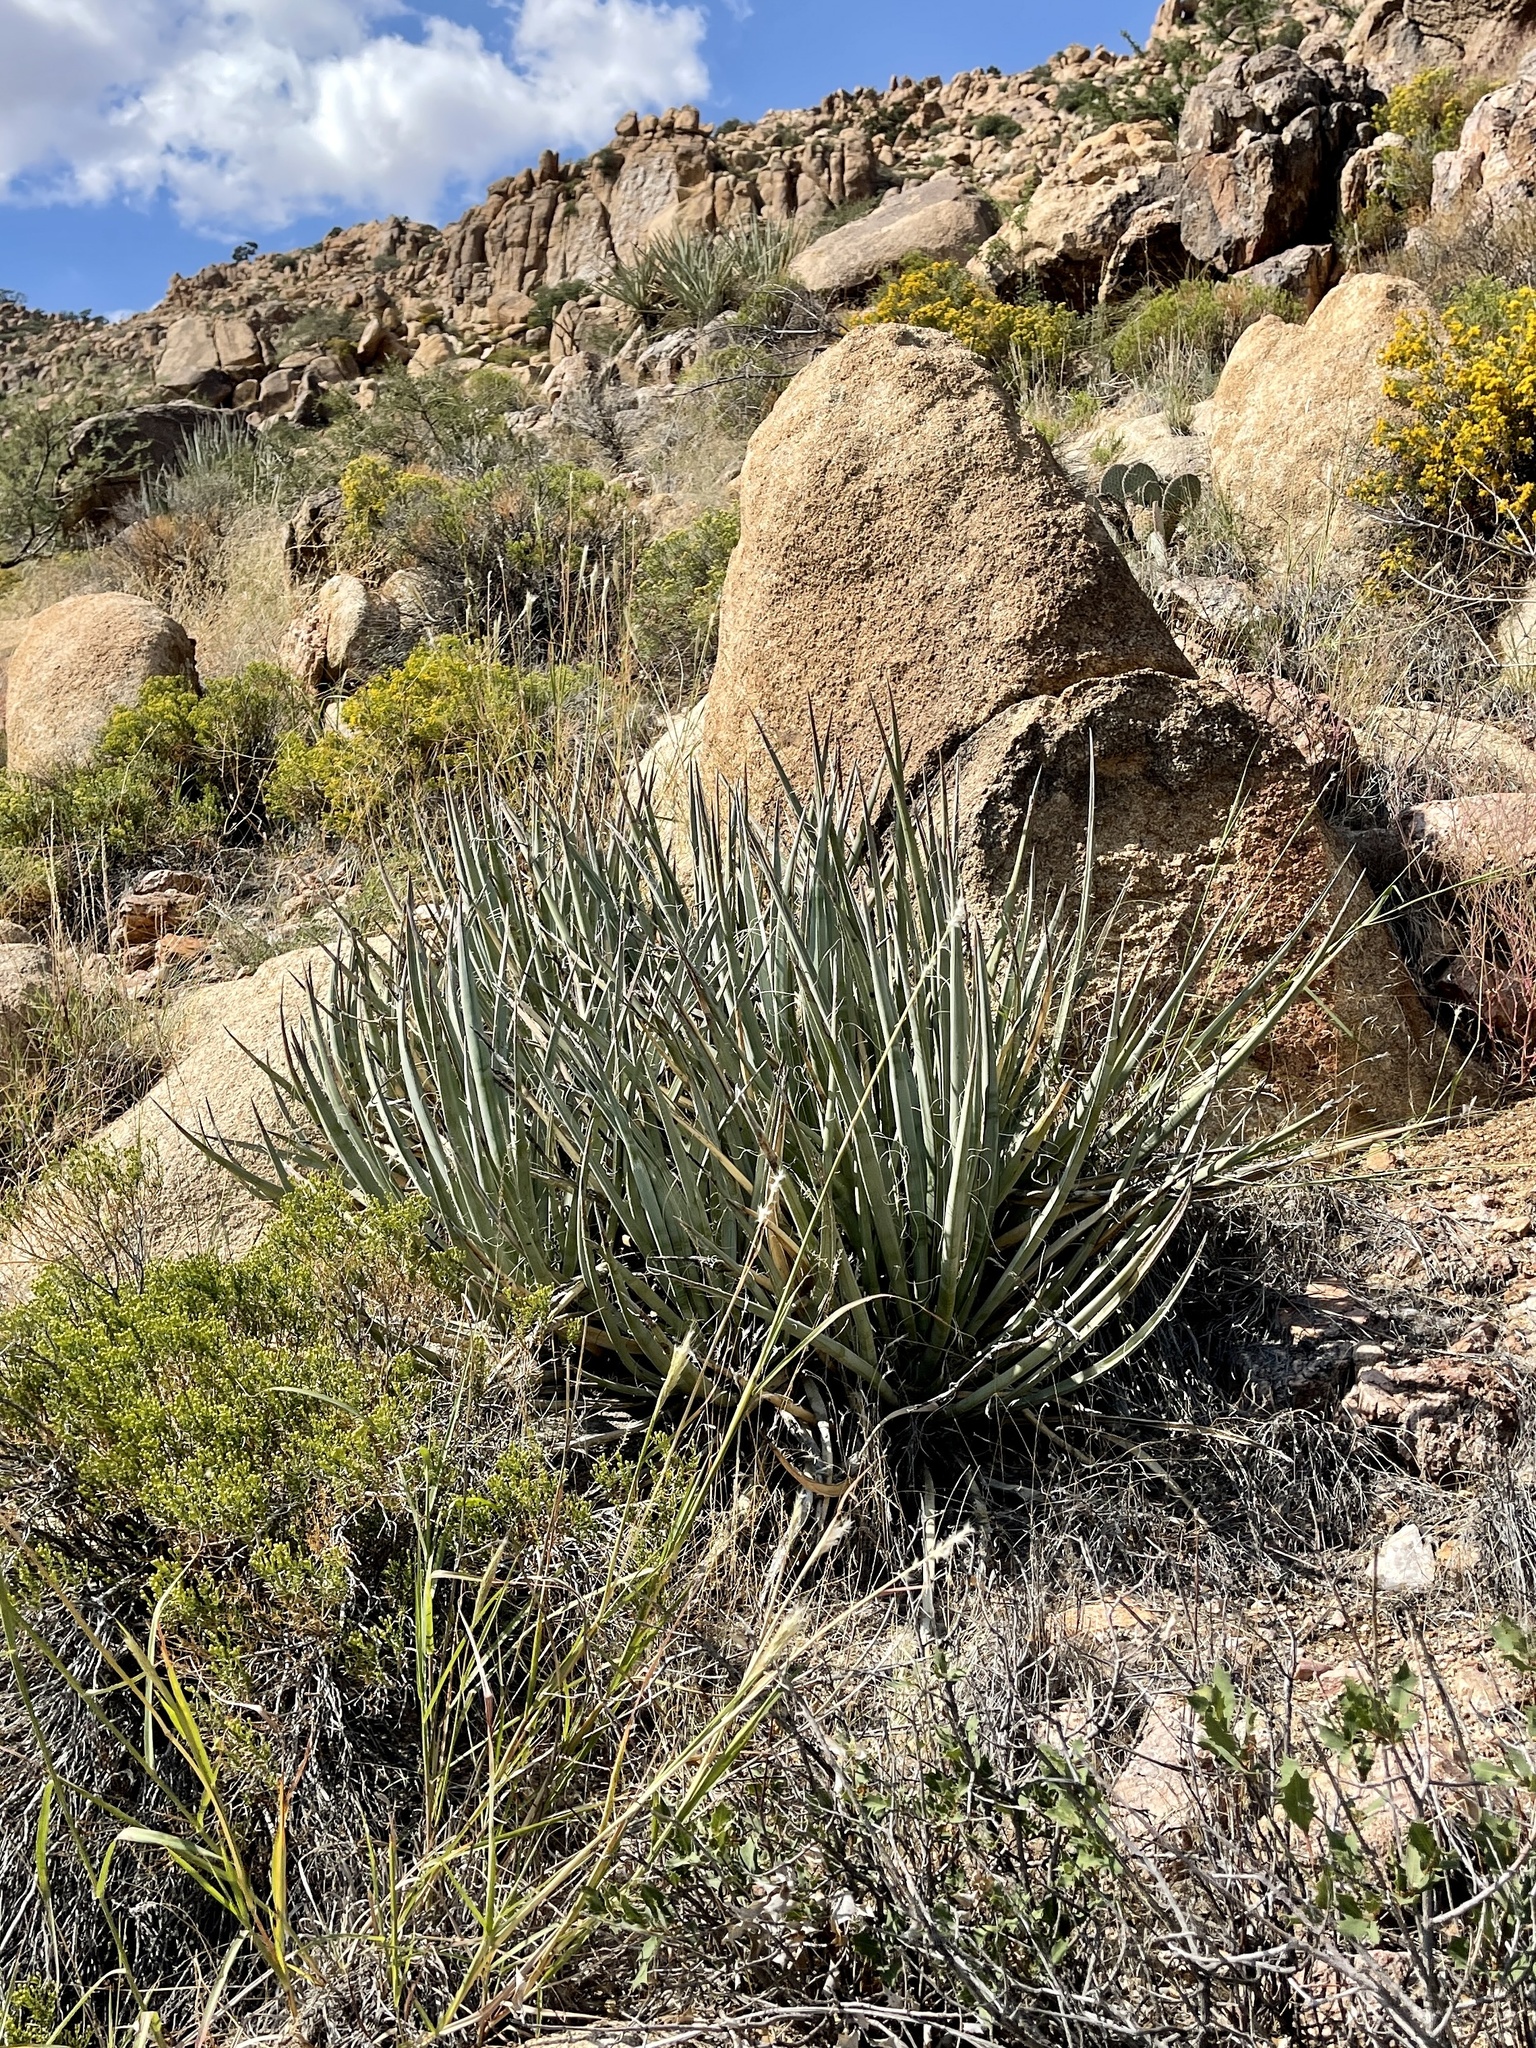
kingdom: Plantae
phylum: Tracheophyta
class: Liliopsida
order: Asparagales
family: Asparagaceae
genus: Yucca
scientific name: Yucca baccata
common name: Banana yucca
